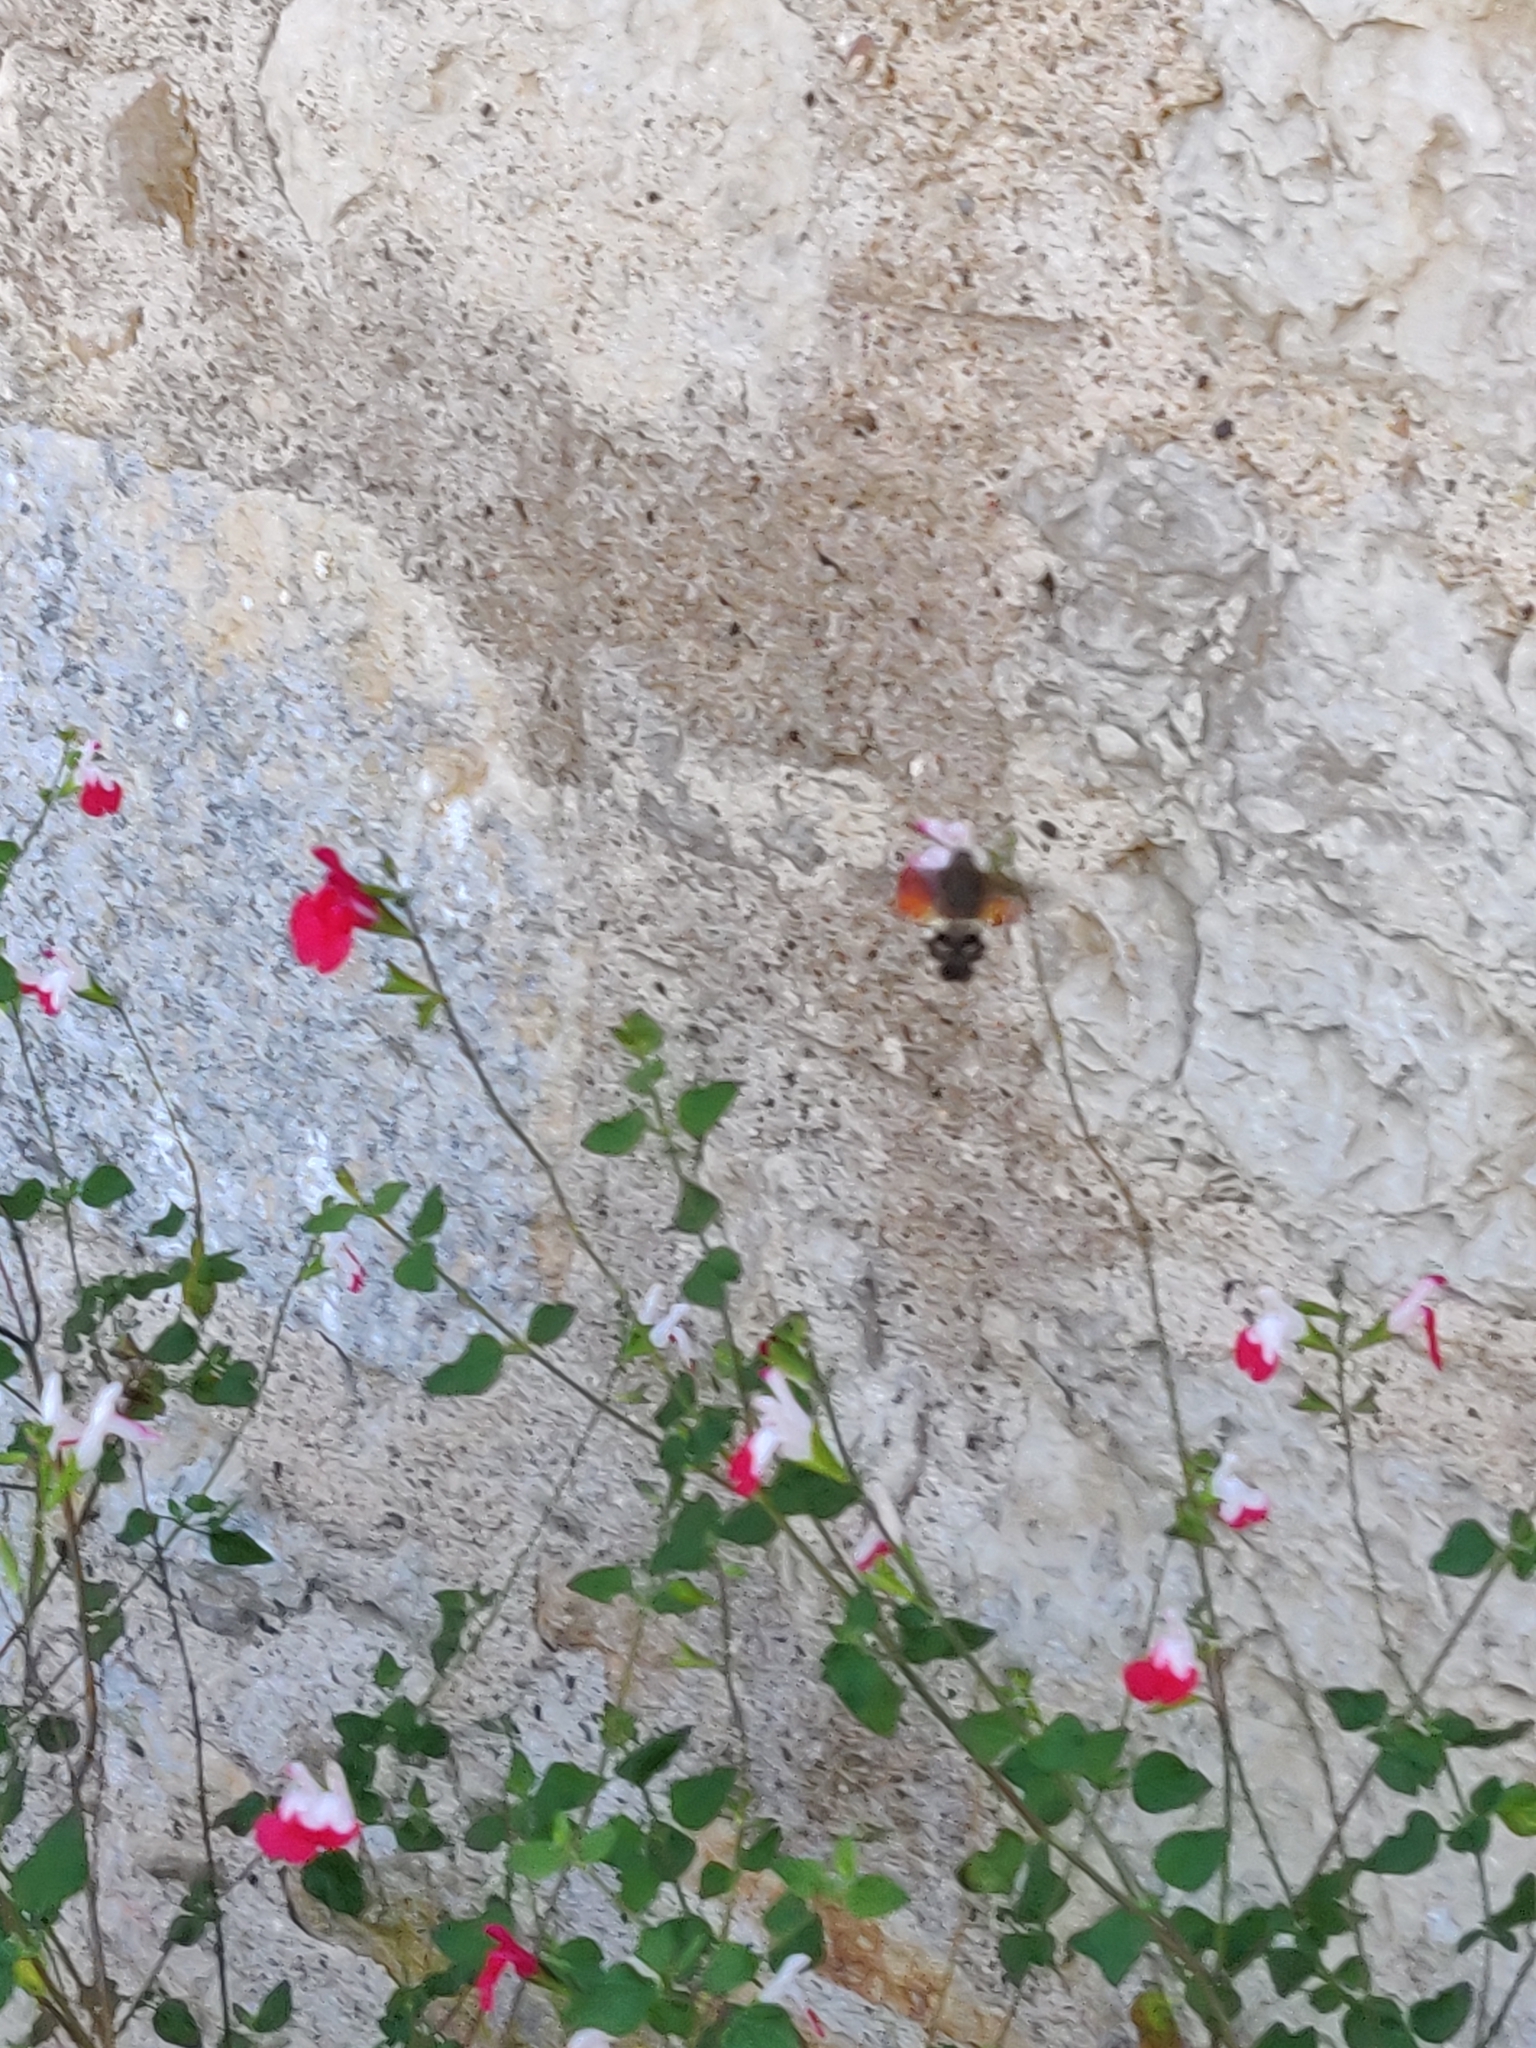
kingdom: Animalia
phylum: Arthropoda
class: Insecta
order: Lepidoptera
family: Sphingidae
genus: Macroglossum
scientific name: Macroglossum stellatarum
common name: Humming-bird hawk-moth
